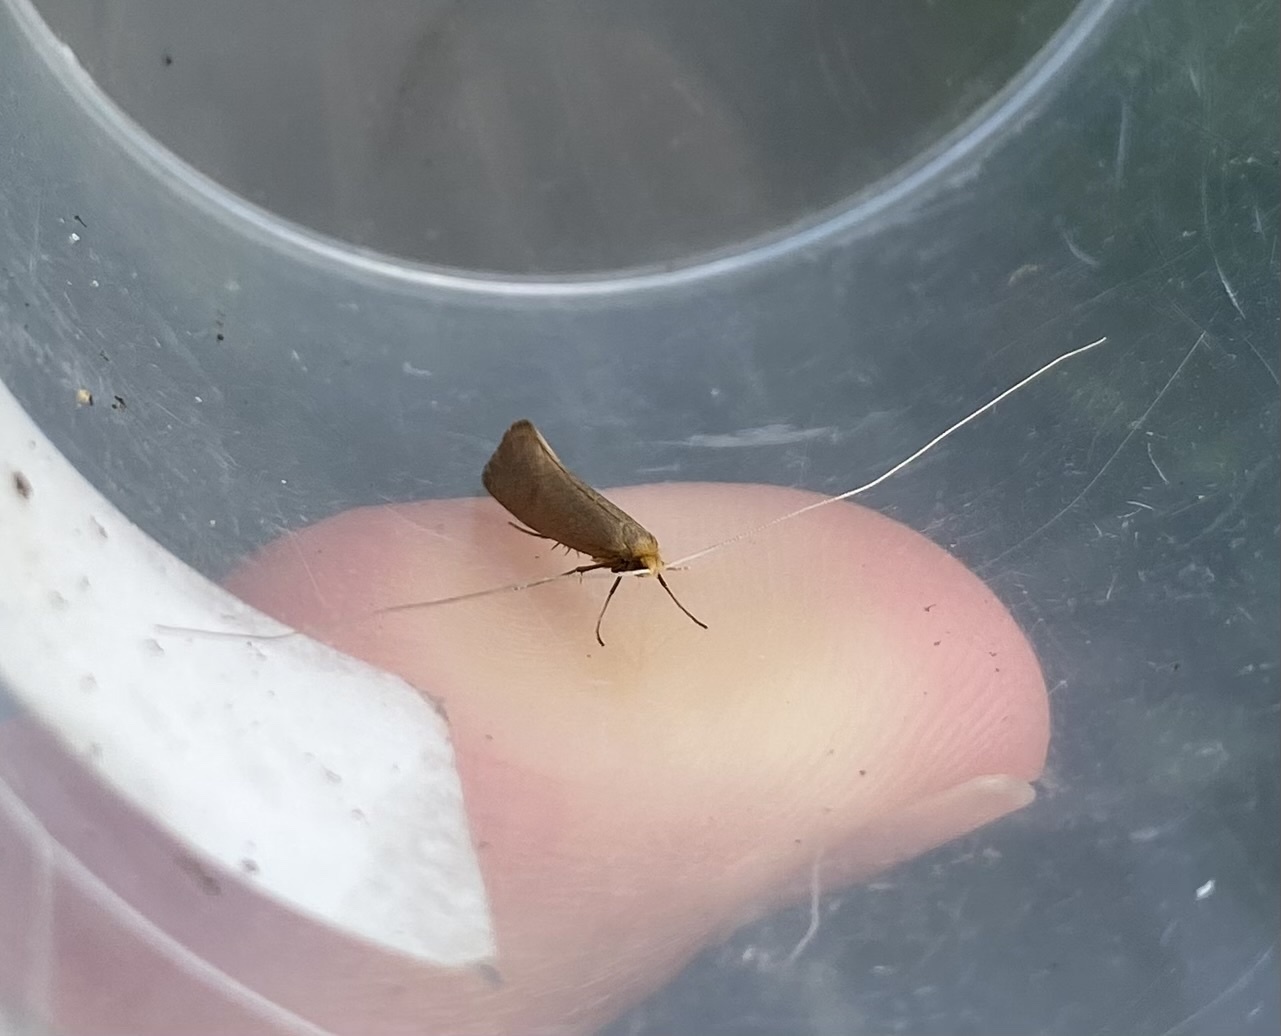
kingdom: Animalia
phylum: Arthropoda
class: Insecta
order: Lepidoptera
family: Adelidae
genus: Nematopogon
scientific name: Nematopogon swammerdamella
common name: Large long-horn
